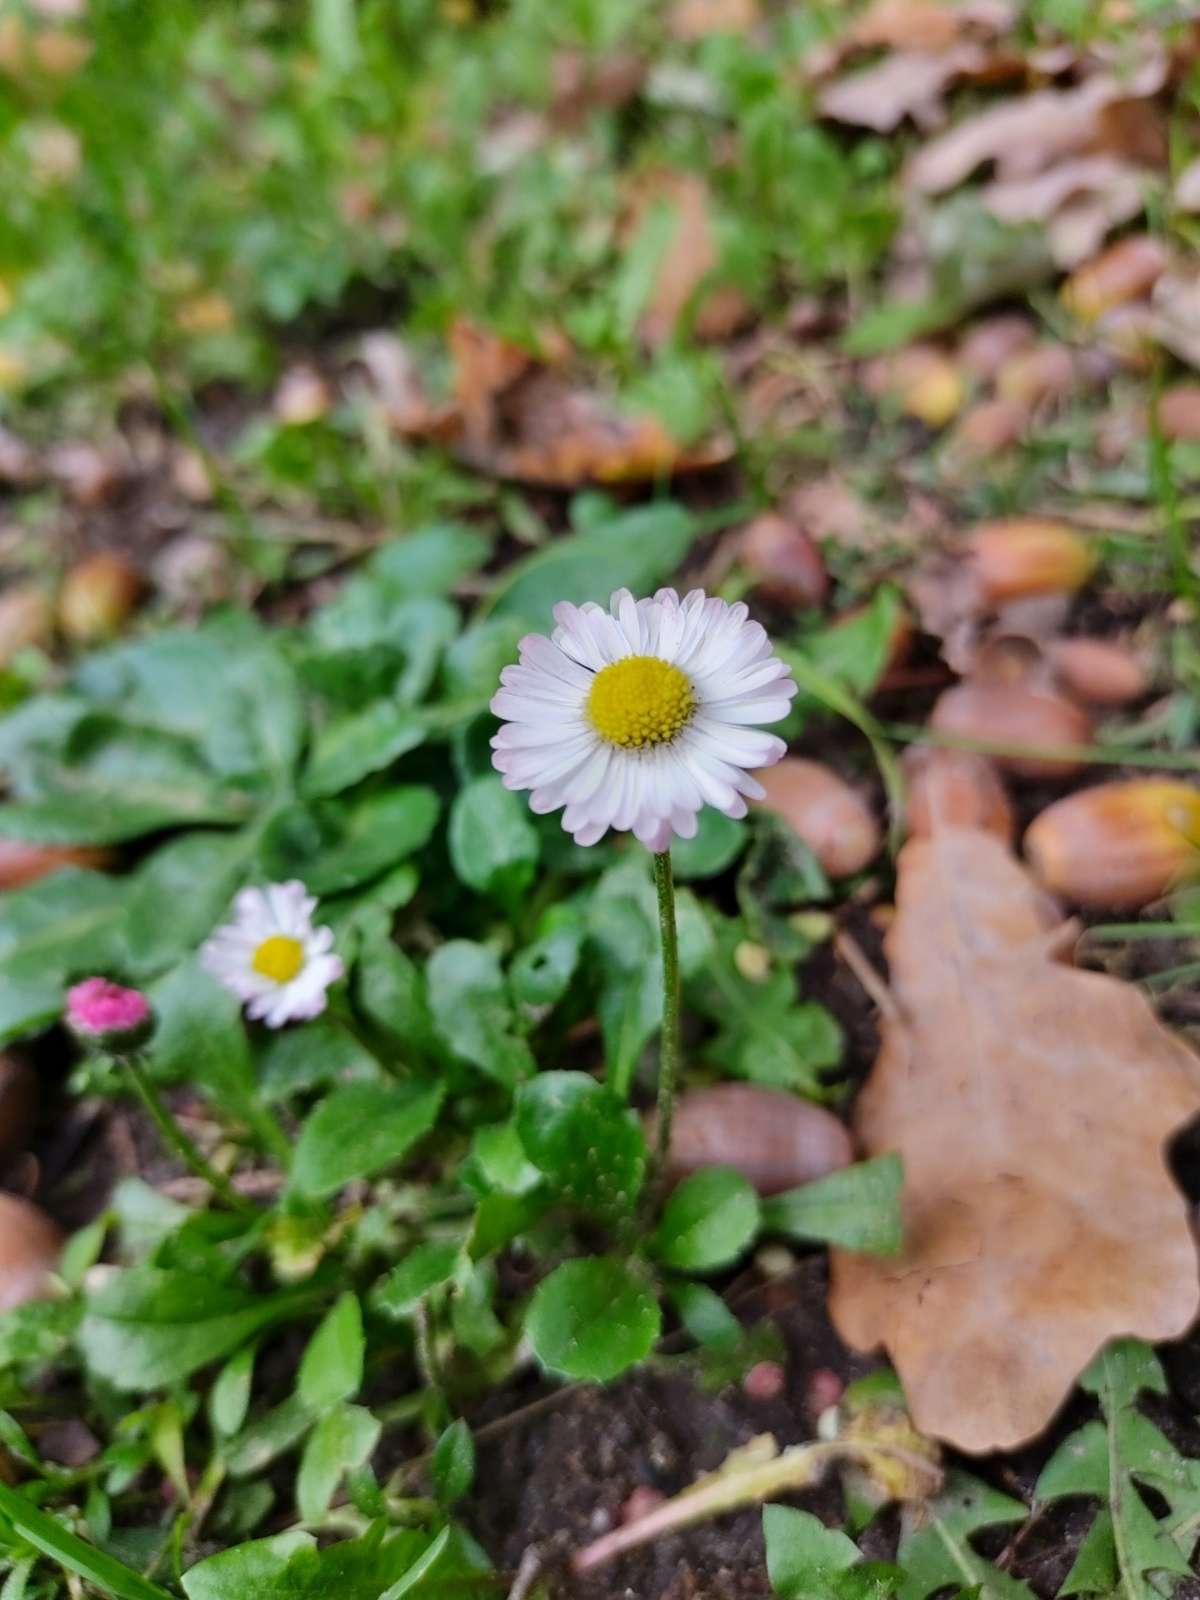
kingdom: Plantae
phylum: Tracheophyta
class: Magnoliopsida
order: Asterales
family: Asteraceae
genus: Bellis
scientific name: Bellis perennis
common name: Lawndaisy
